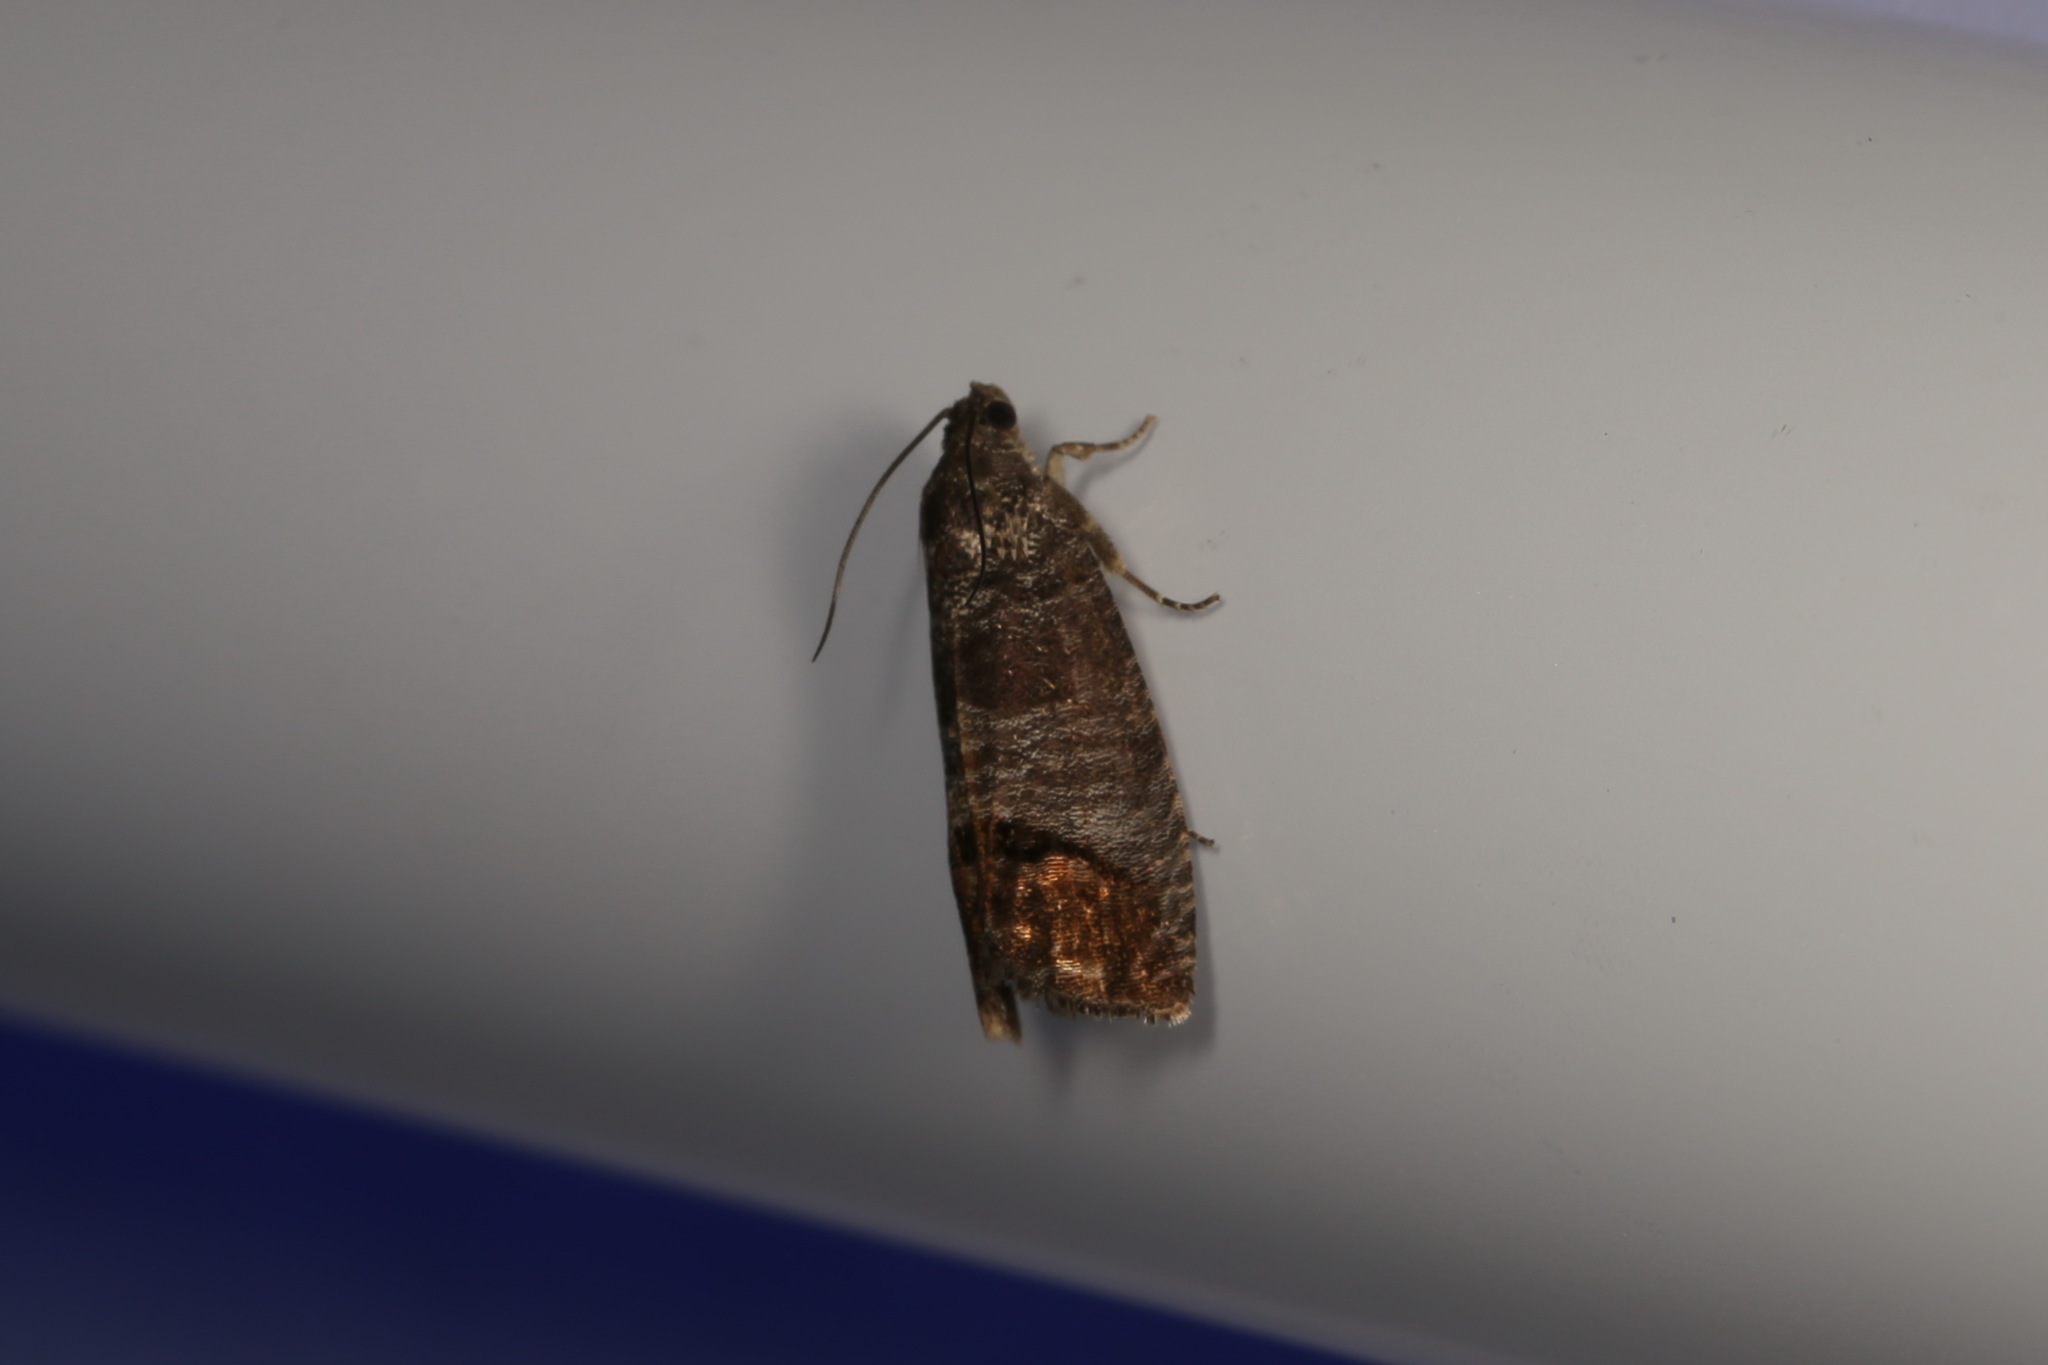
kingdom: Animalia
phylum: Arthropoda
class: Insecta
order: Lepidoptera
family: Tortricidae
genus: Cydia
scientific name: Cydia pomonella
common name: Codling moth
